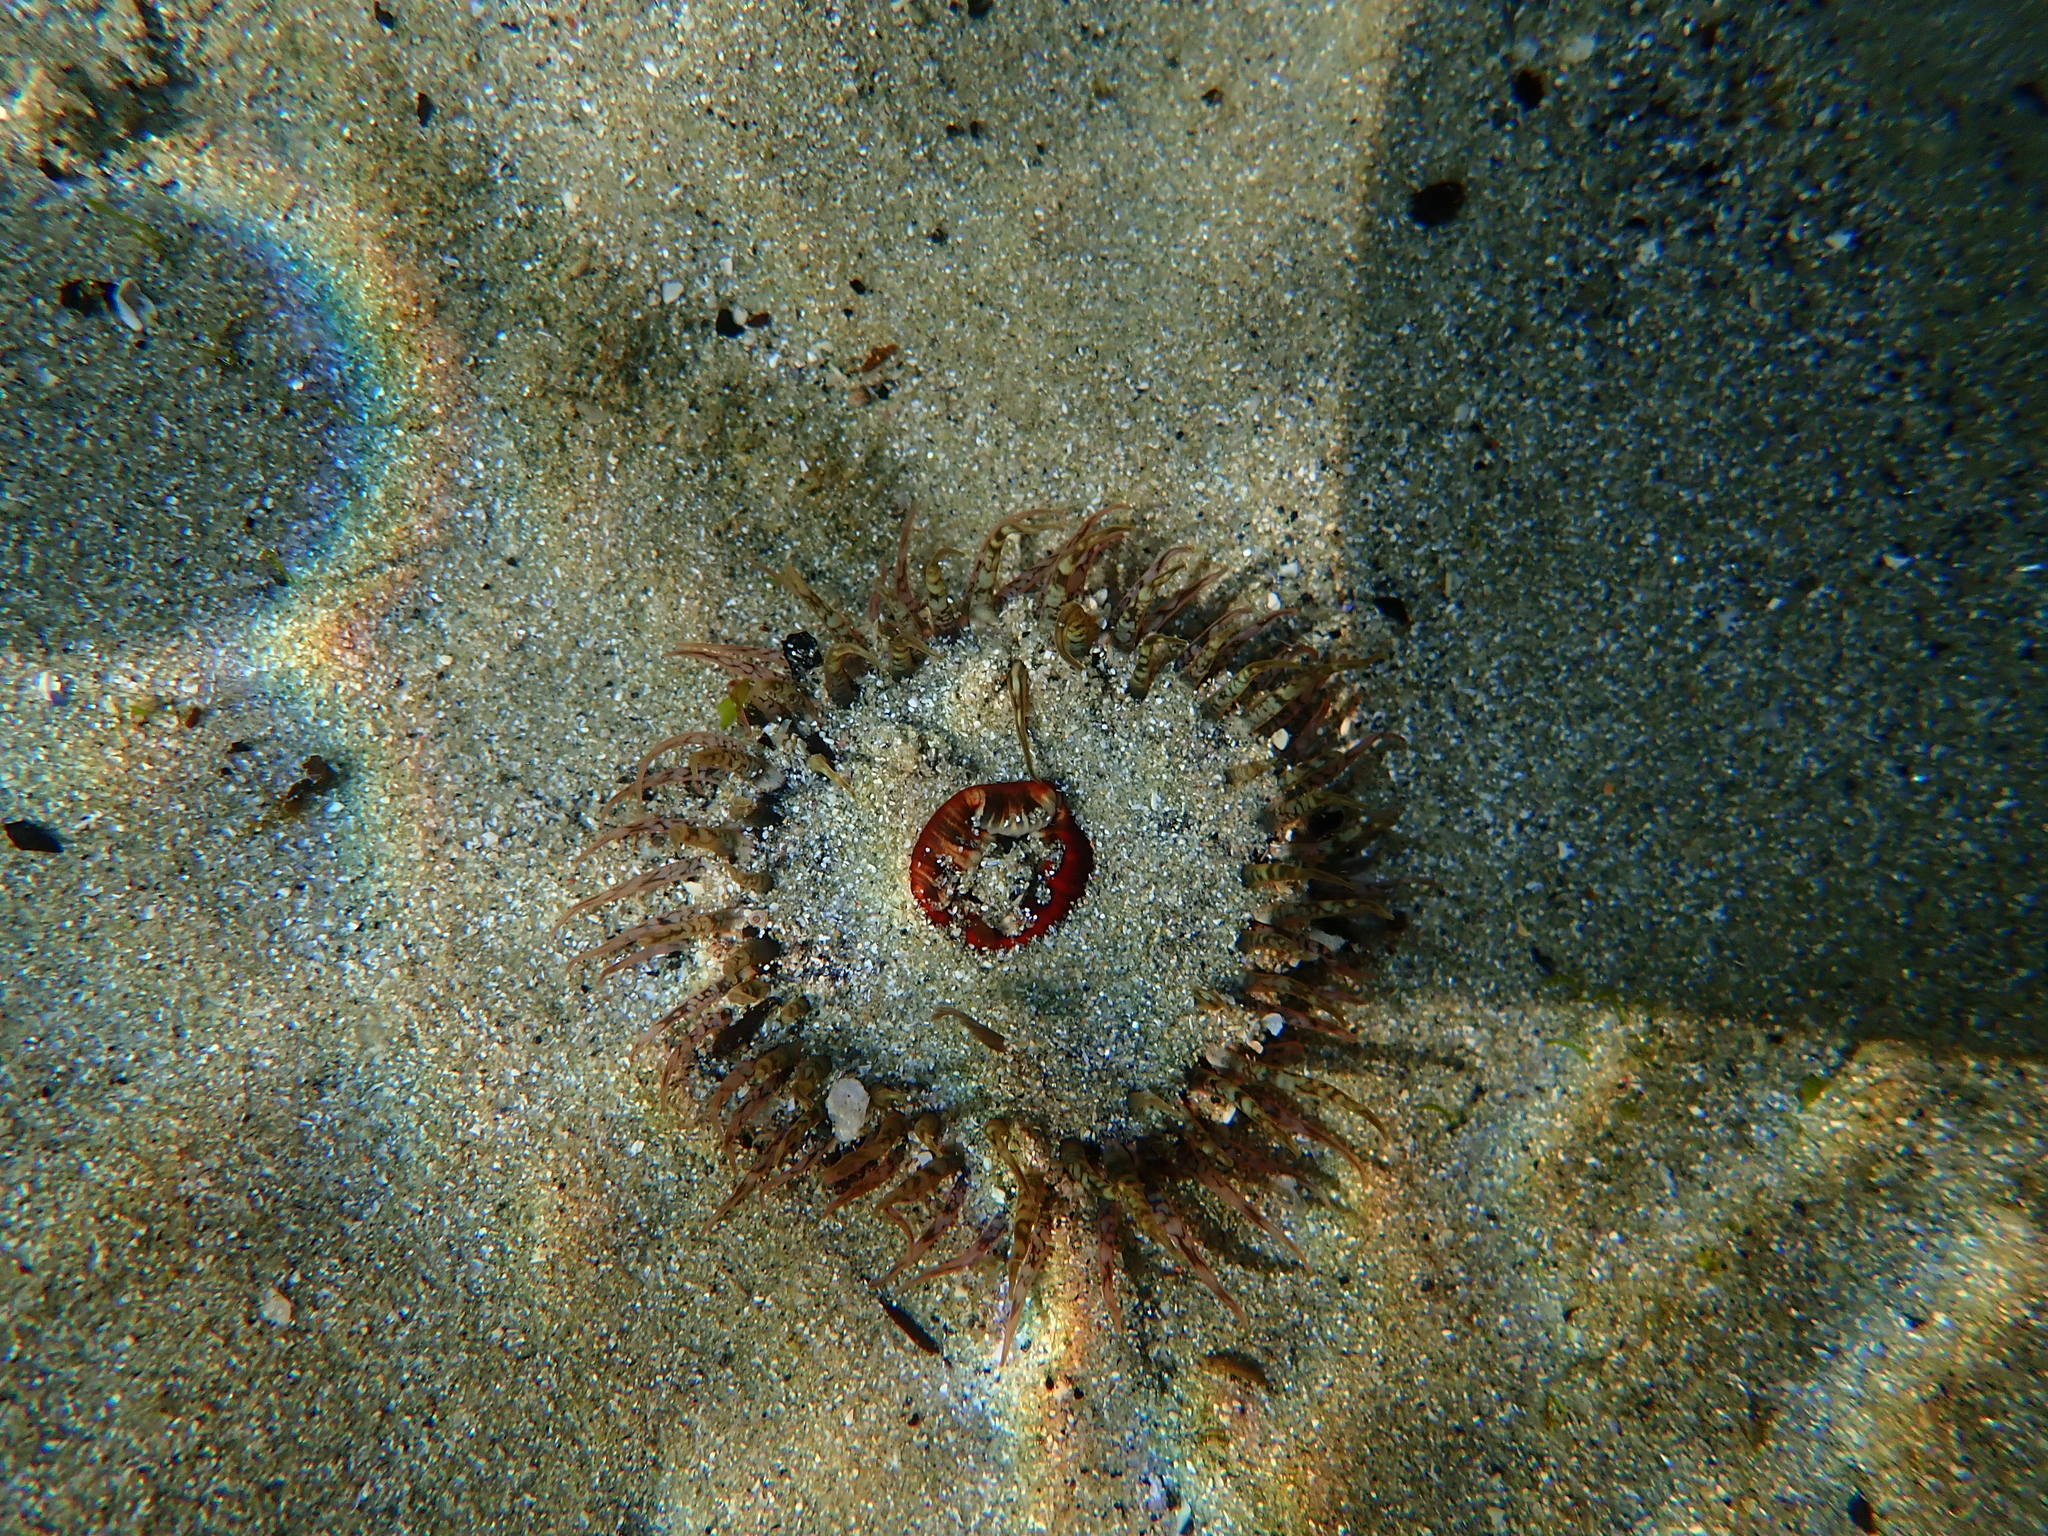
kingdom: Animalia
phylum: Cnidaria
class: Anthozoa
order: Actiniaria
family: Actiniidae
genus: Oulactis
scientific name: Oulactis muscosa
